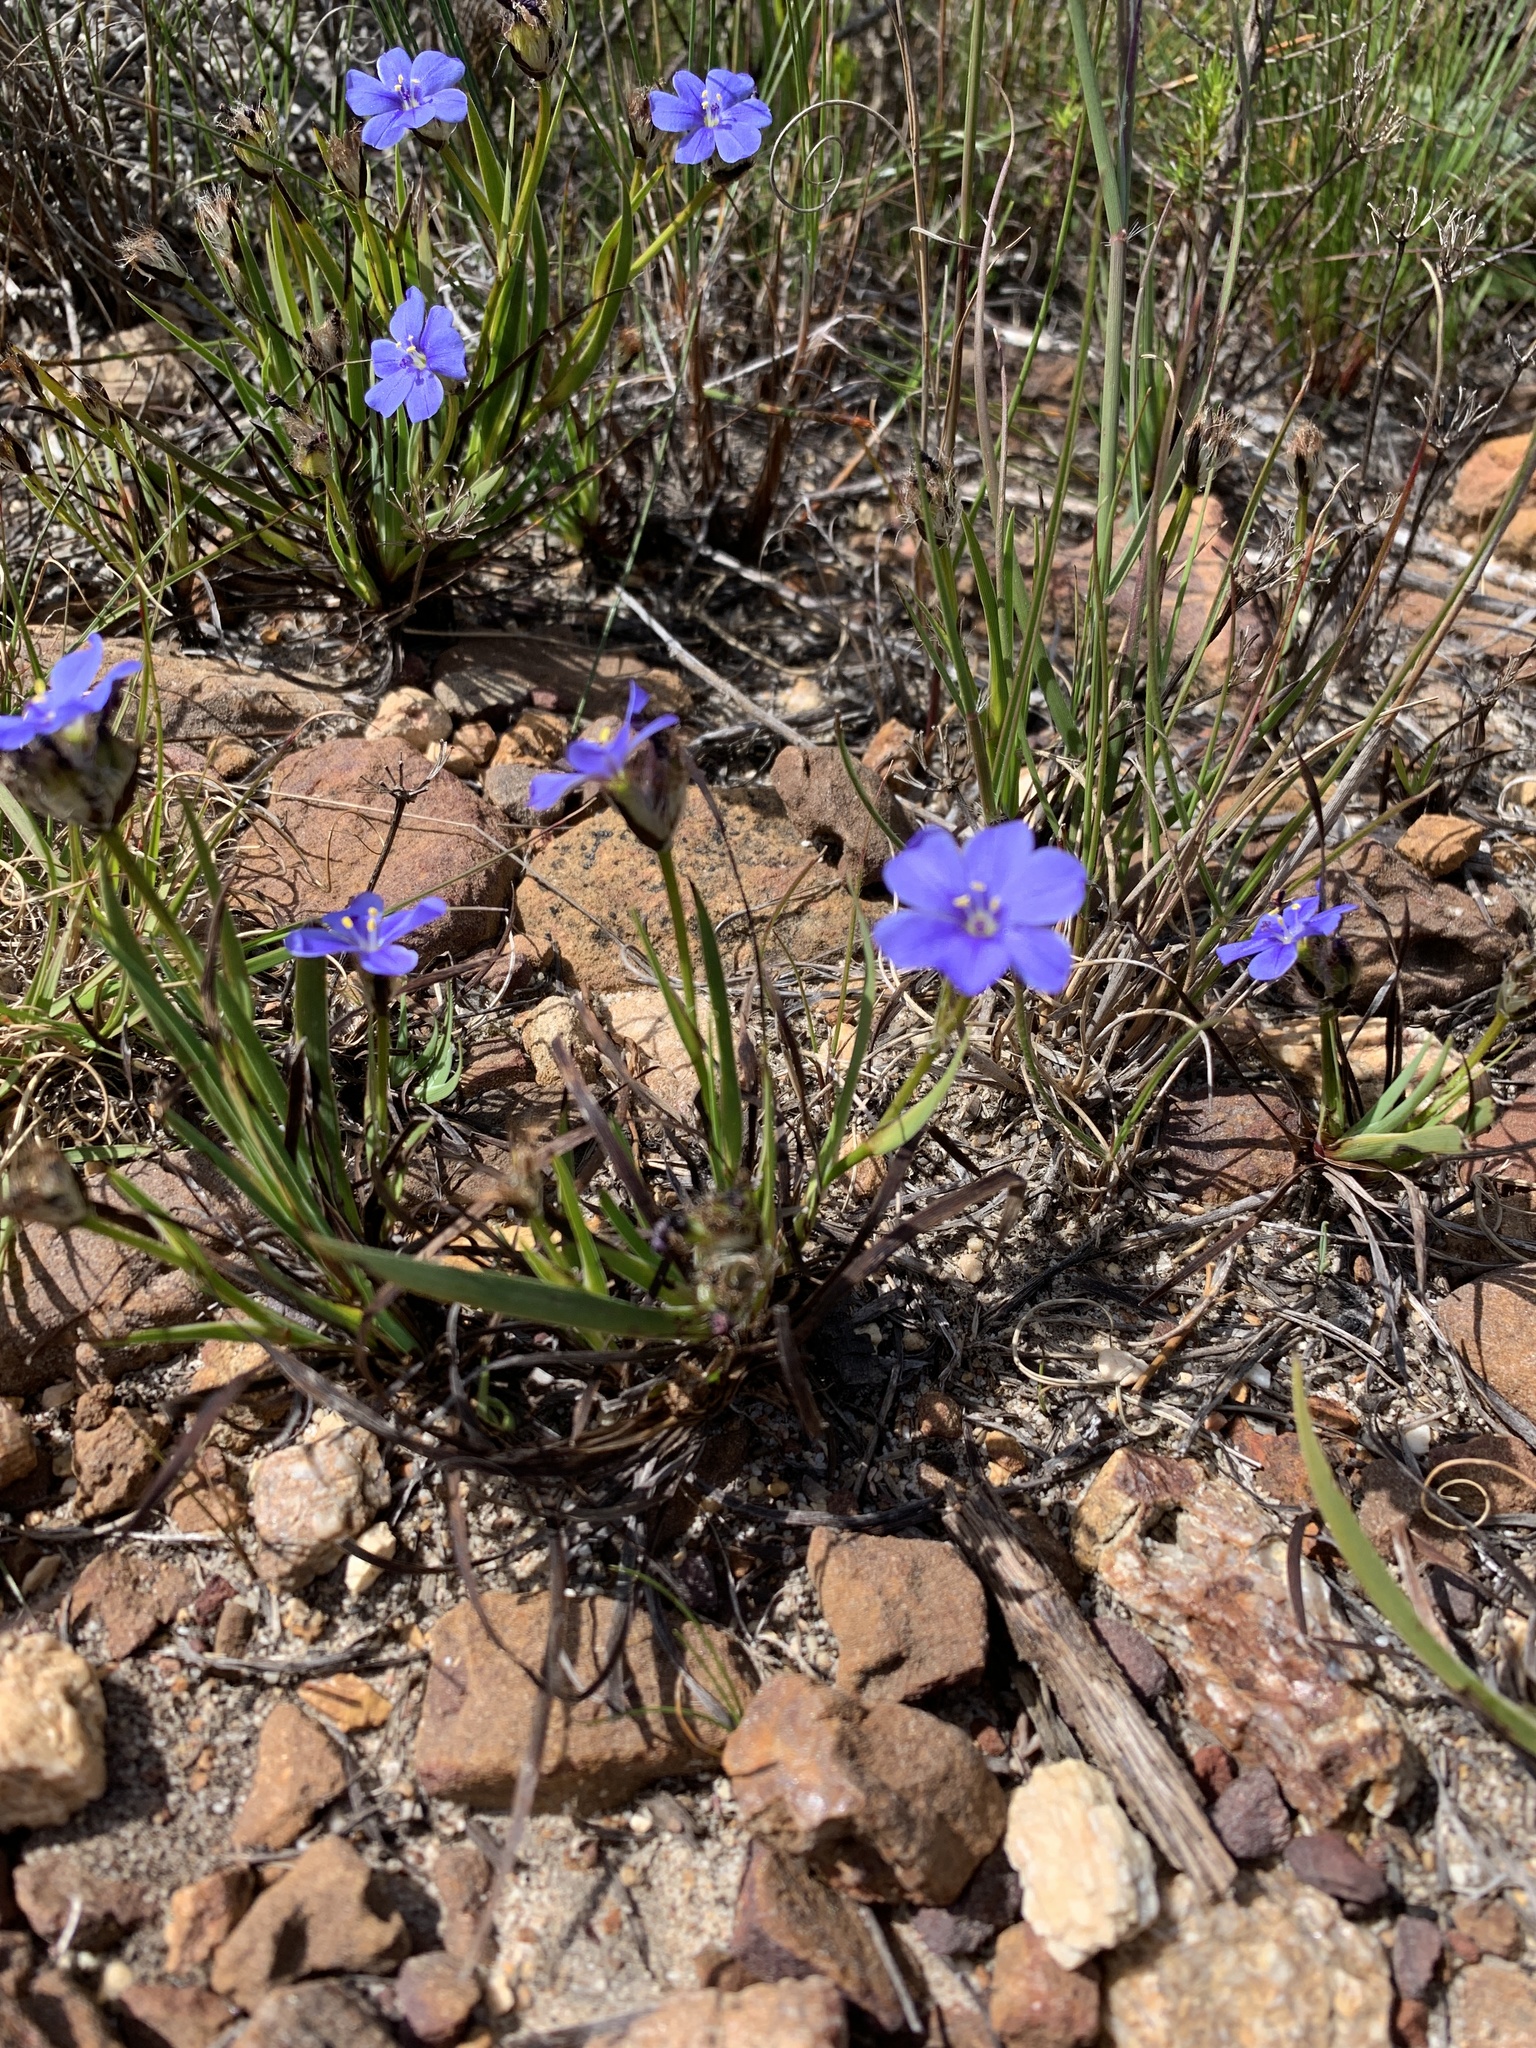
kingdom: Plantae
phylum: Tracheophyta
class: Liliopsida
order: Asparagales
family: Iridaceae
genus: Aristea
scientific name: Aristea africana
